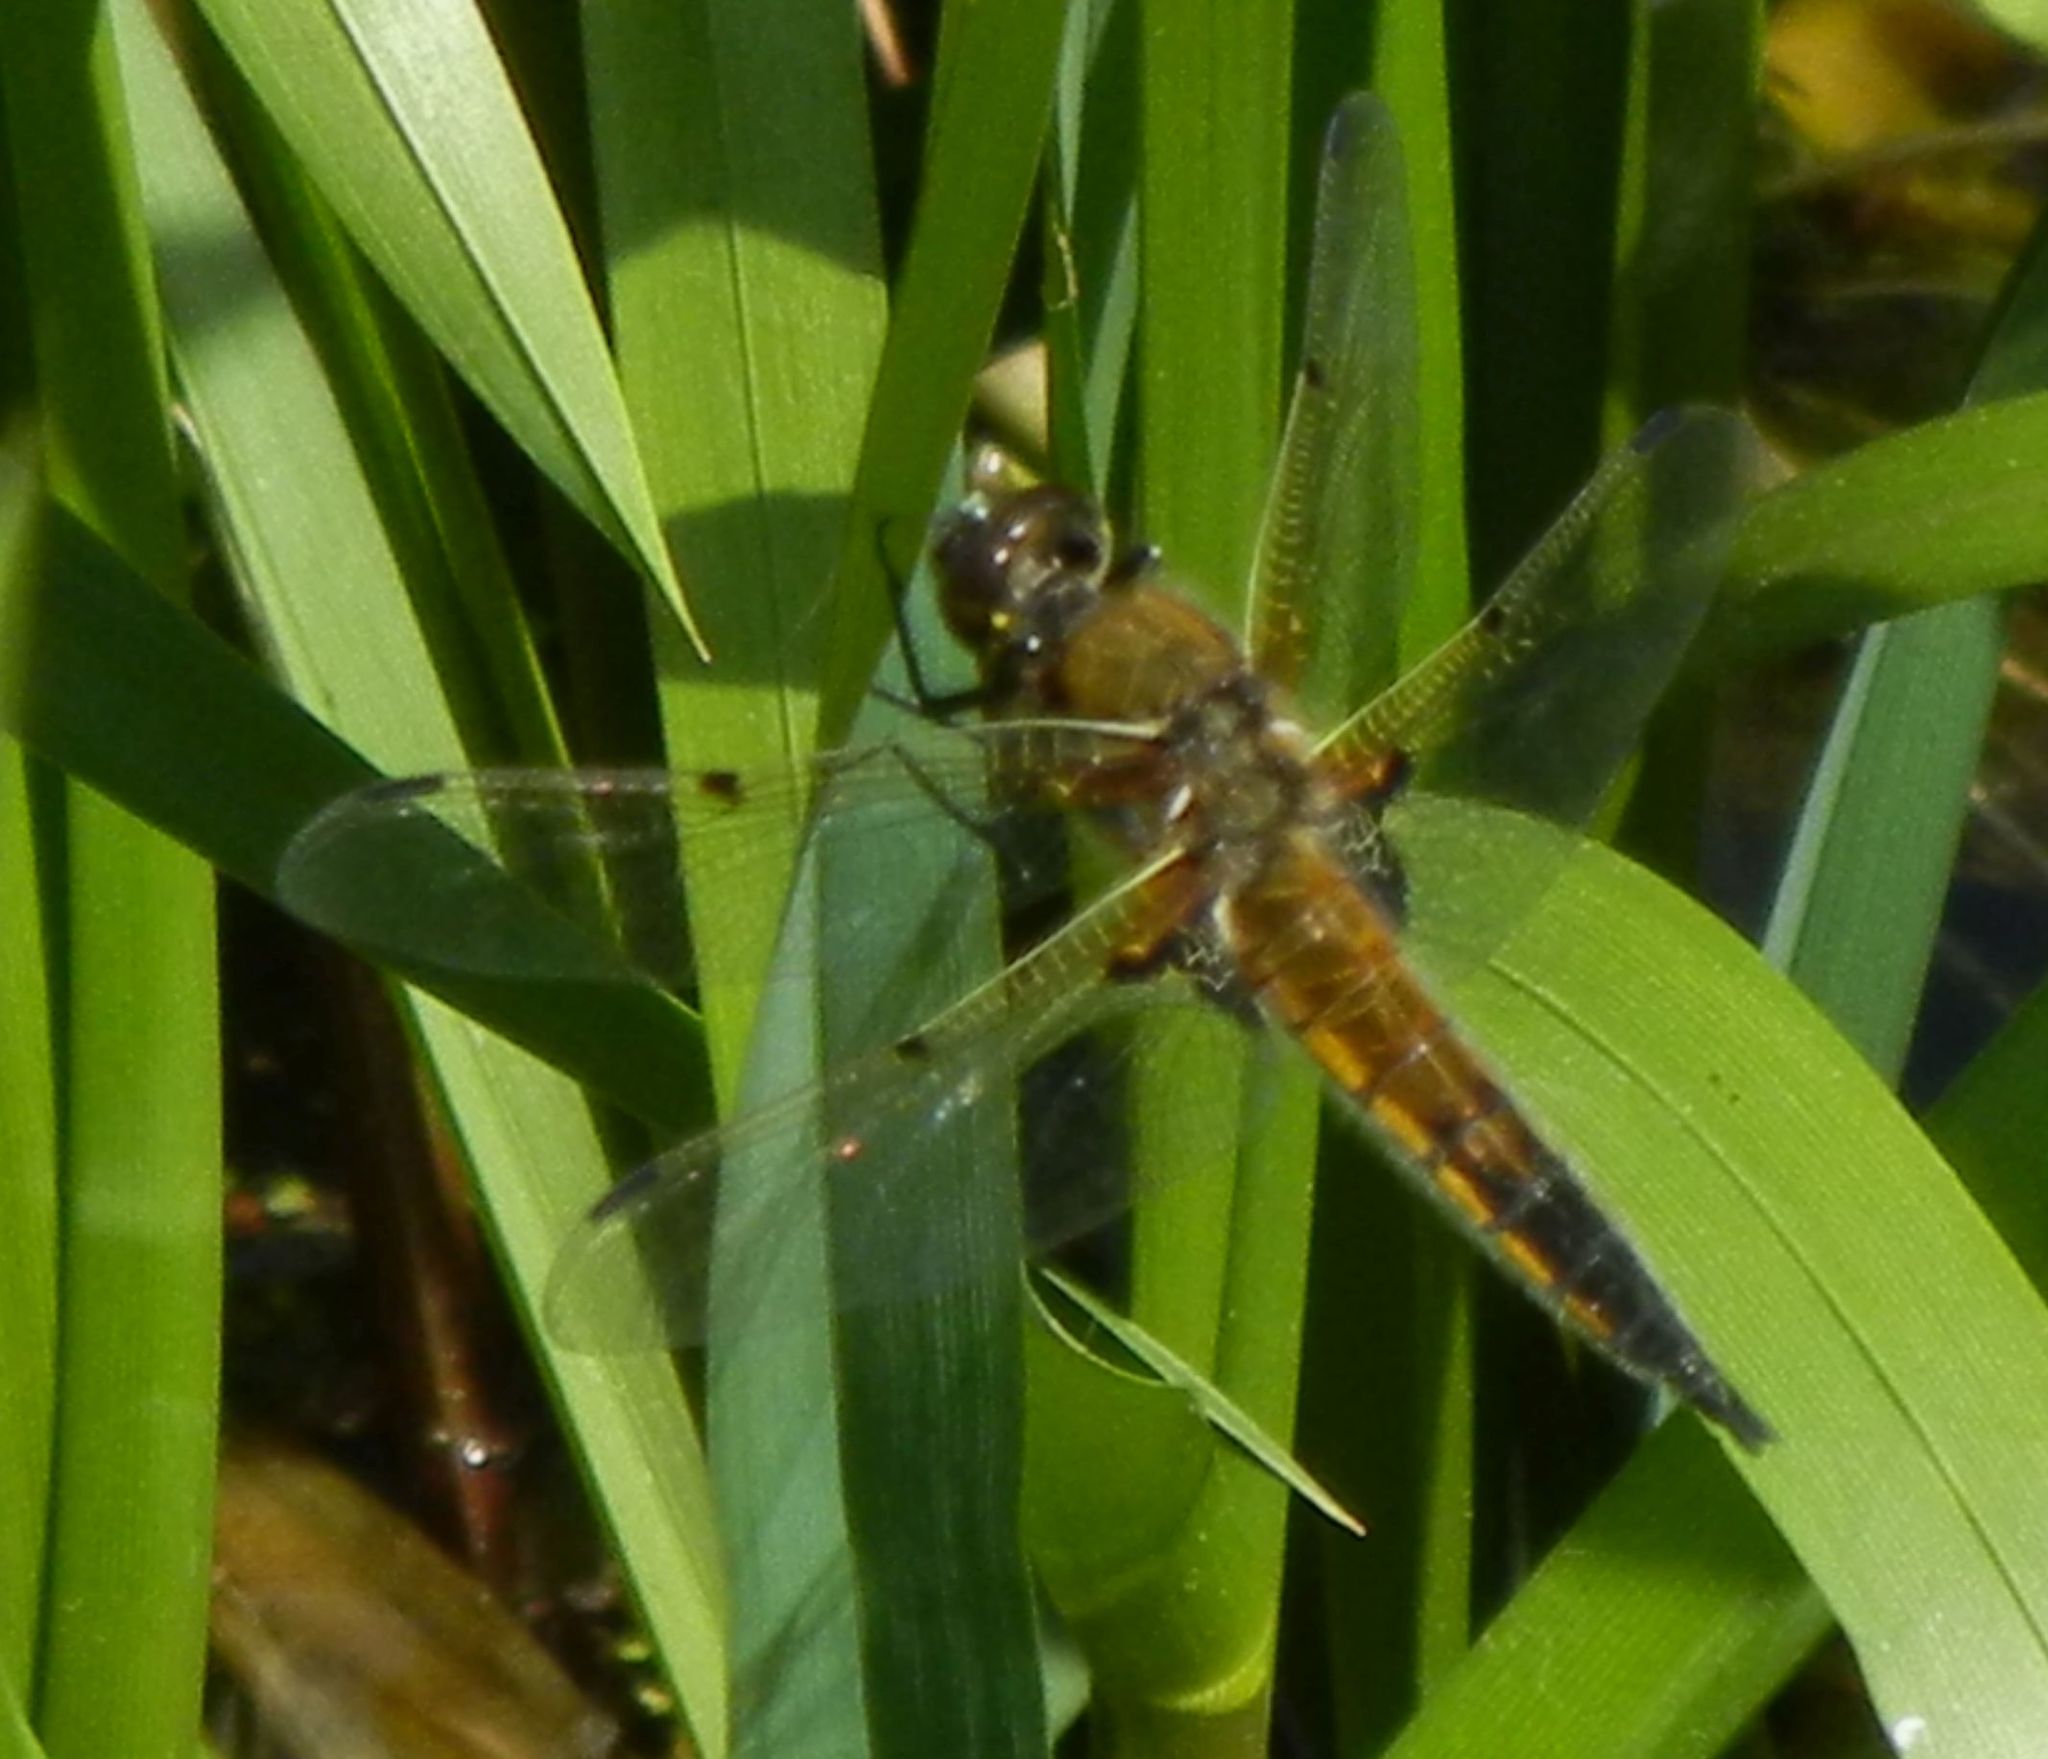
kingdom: Animalia
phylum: Arthropoda
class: Insecta
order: Odonata
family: Libellulidae
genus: Libellula
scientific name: Libellula quadrimaculata
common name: Four-spotted chaser
